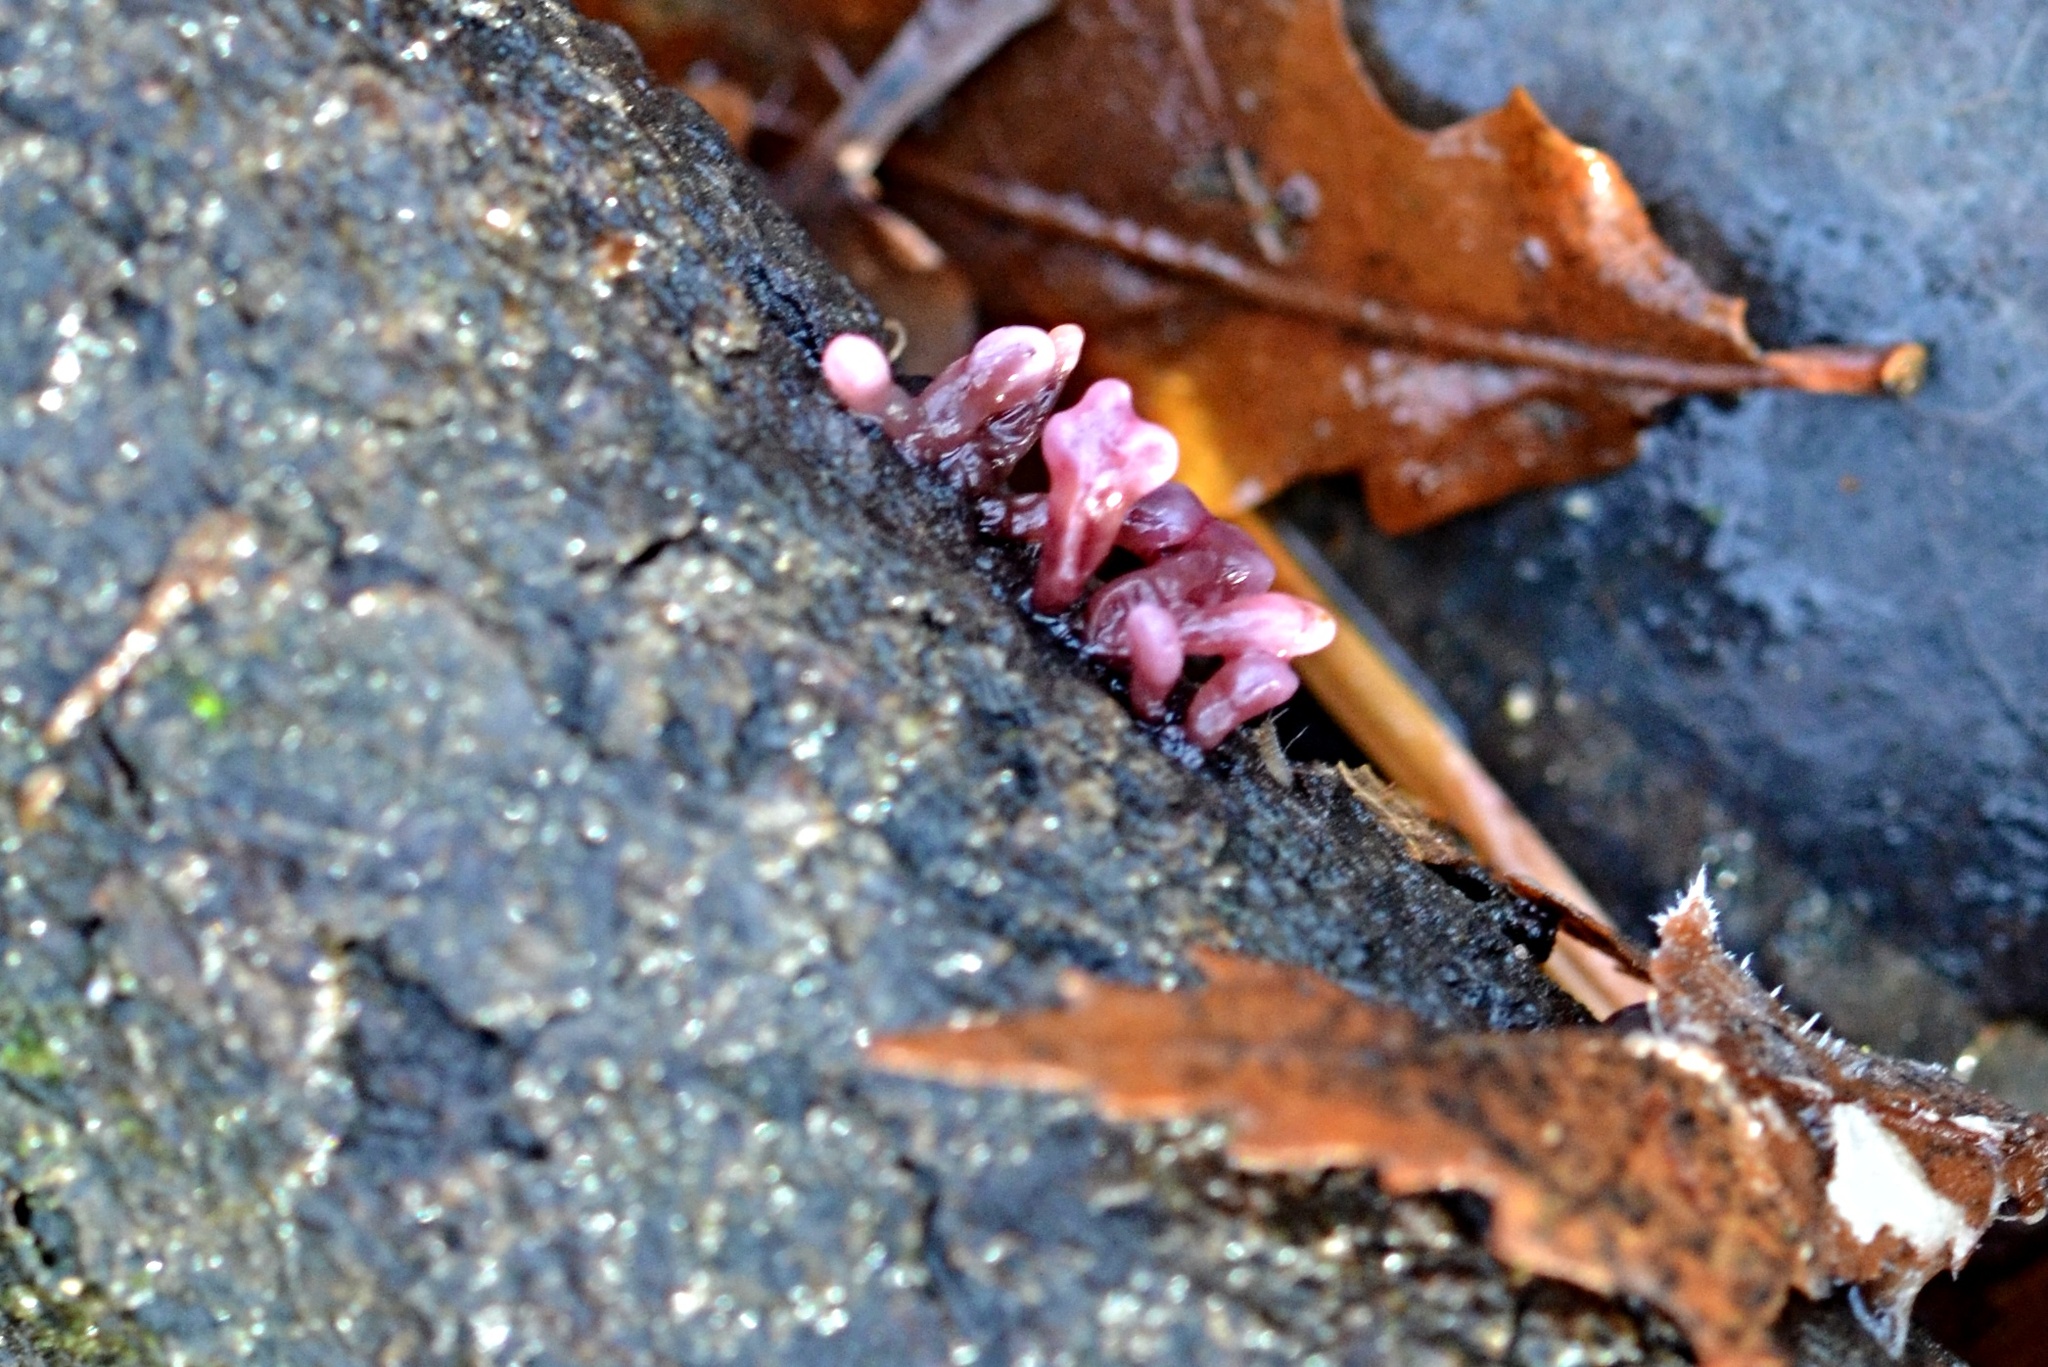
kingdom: Fungi
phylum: Ascomycota
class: Leotiomycetes
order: Helotiales
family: Gelatinodiscaceae
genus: Ascocoryne
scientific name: Ascocoryne sarcoides
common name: Purple jellydisc
